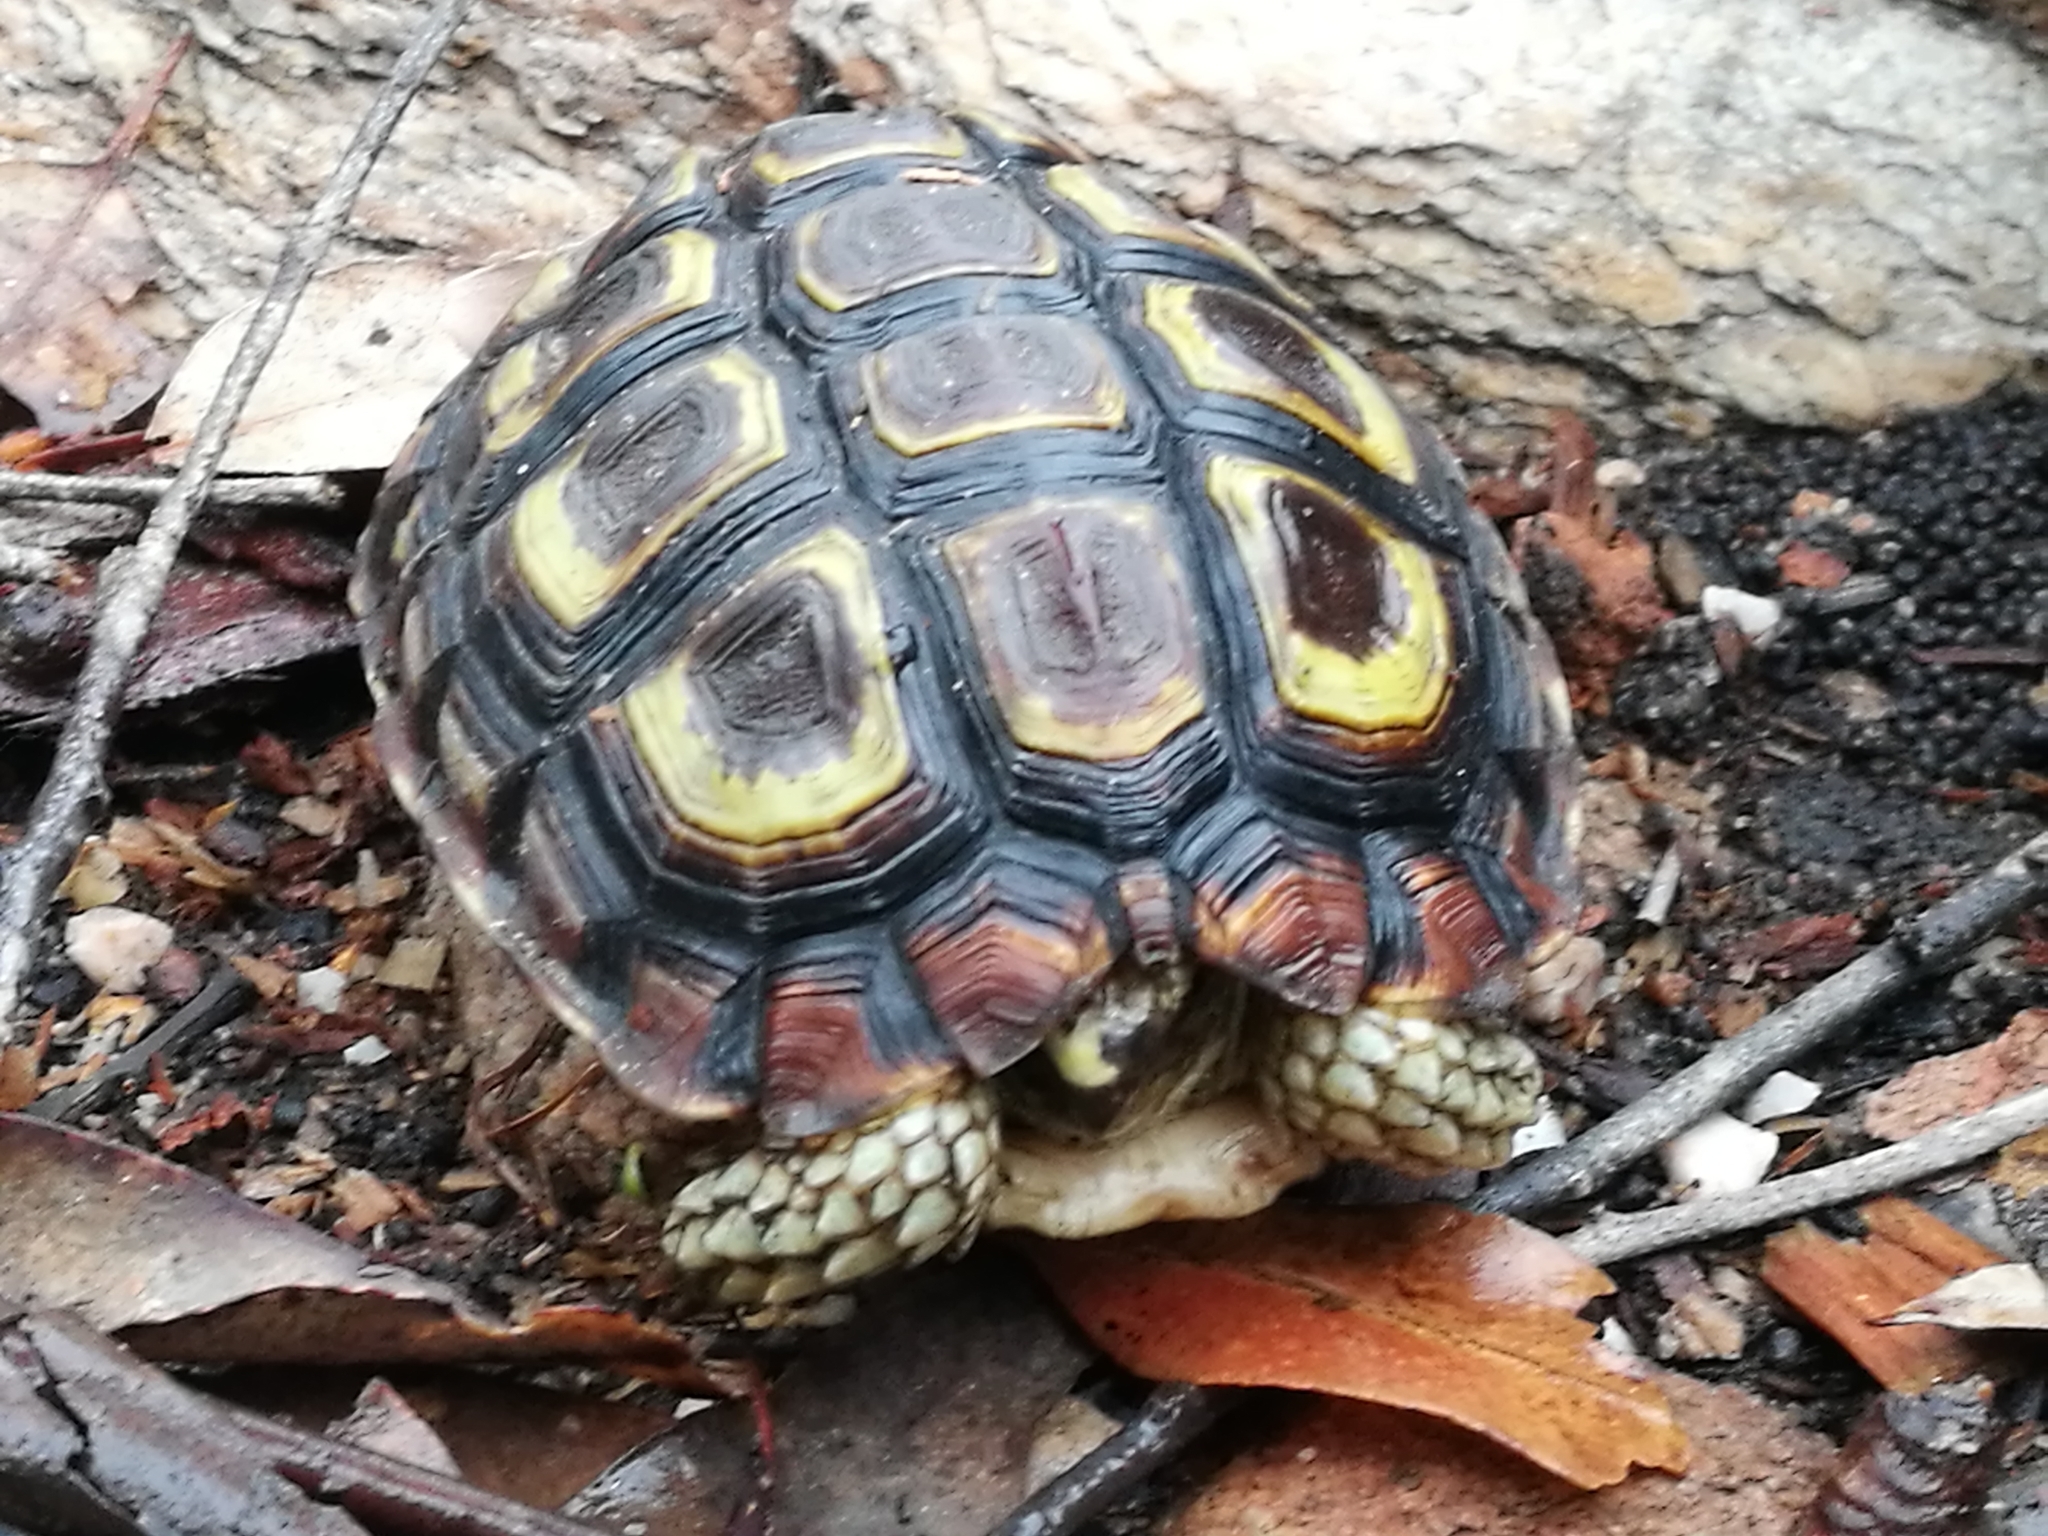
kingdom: Animalia
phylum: Chordata
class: Testudines
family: Testudinidae
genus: Homopus
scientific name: Homopus areolatus
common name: Parrot-beaked tortoise
